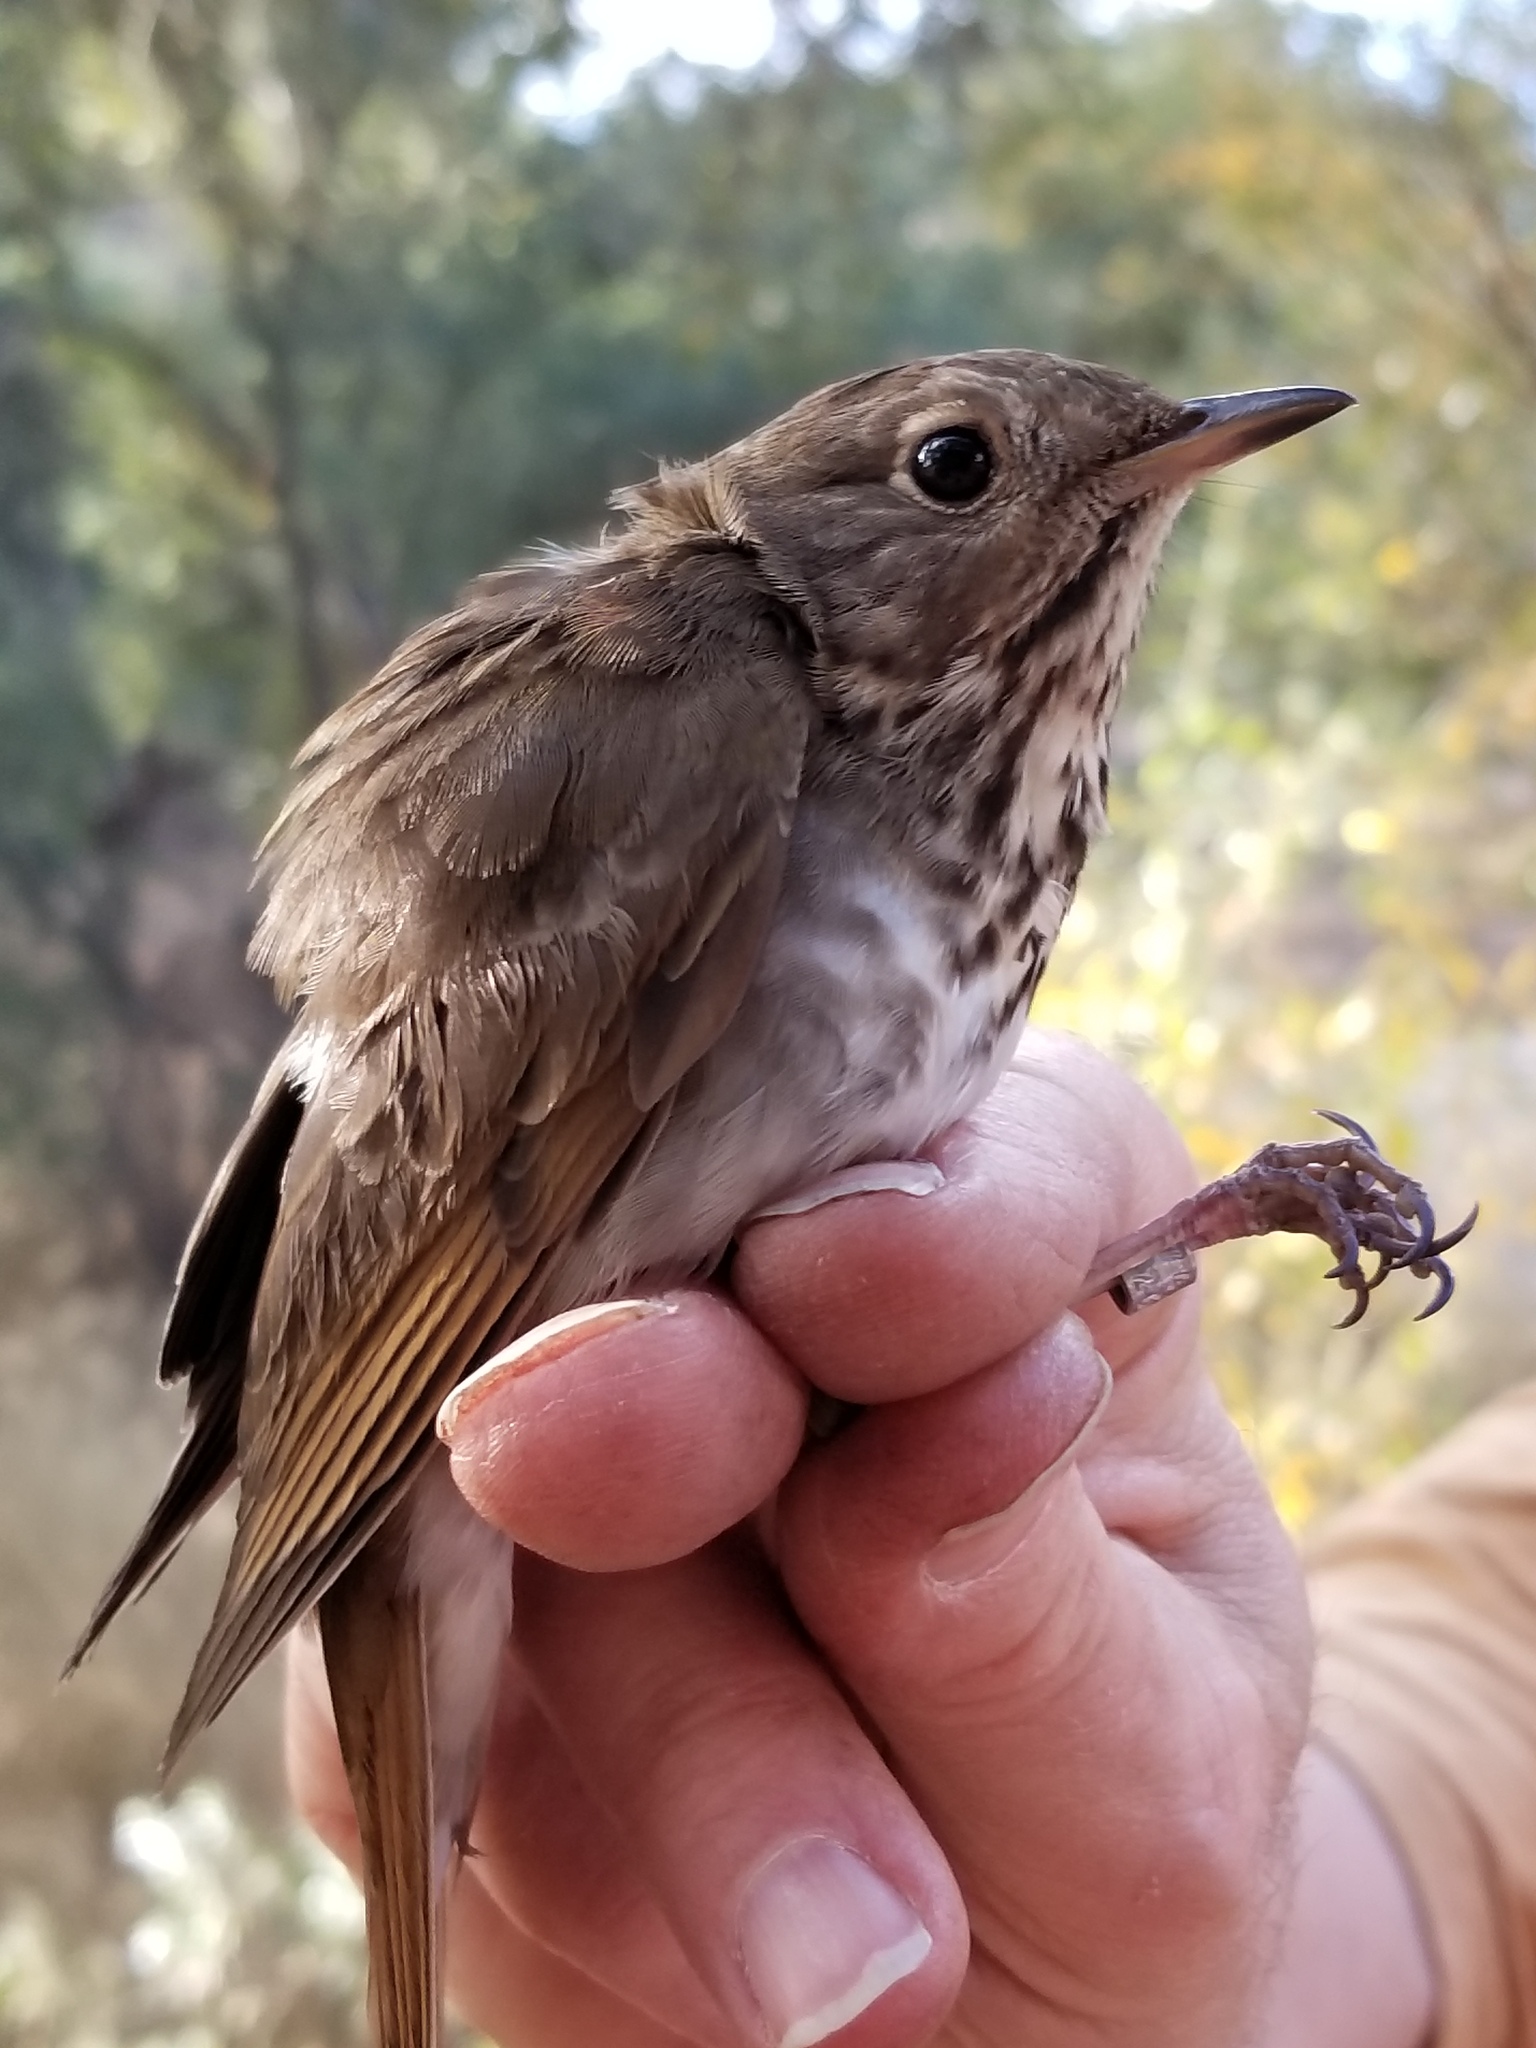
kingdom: Animalia
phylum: Chordata
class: Aves
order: Passeriformes
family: Turdidae
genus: Catharus
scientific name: Catharus guttatus
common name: Hermit thrush
